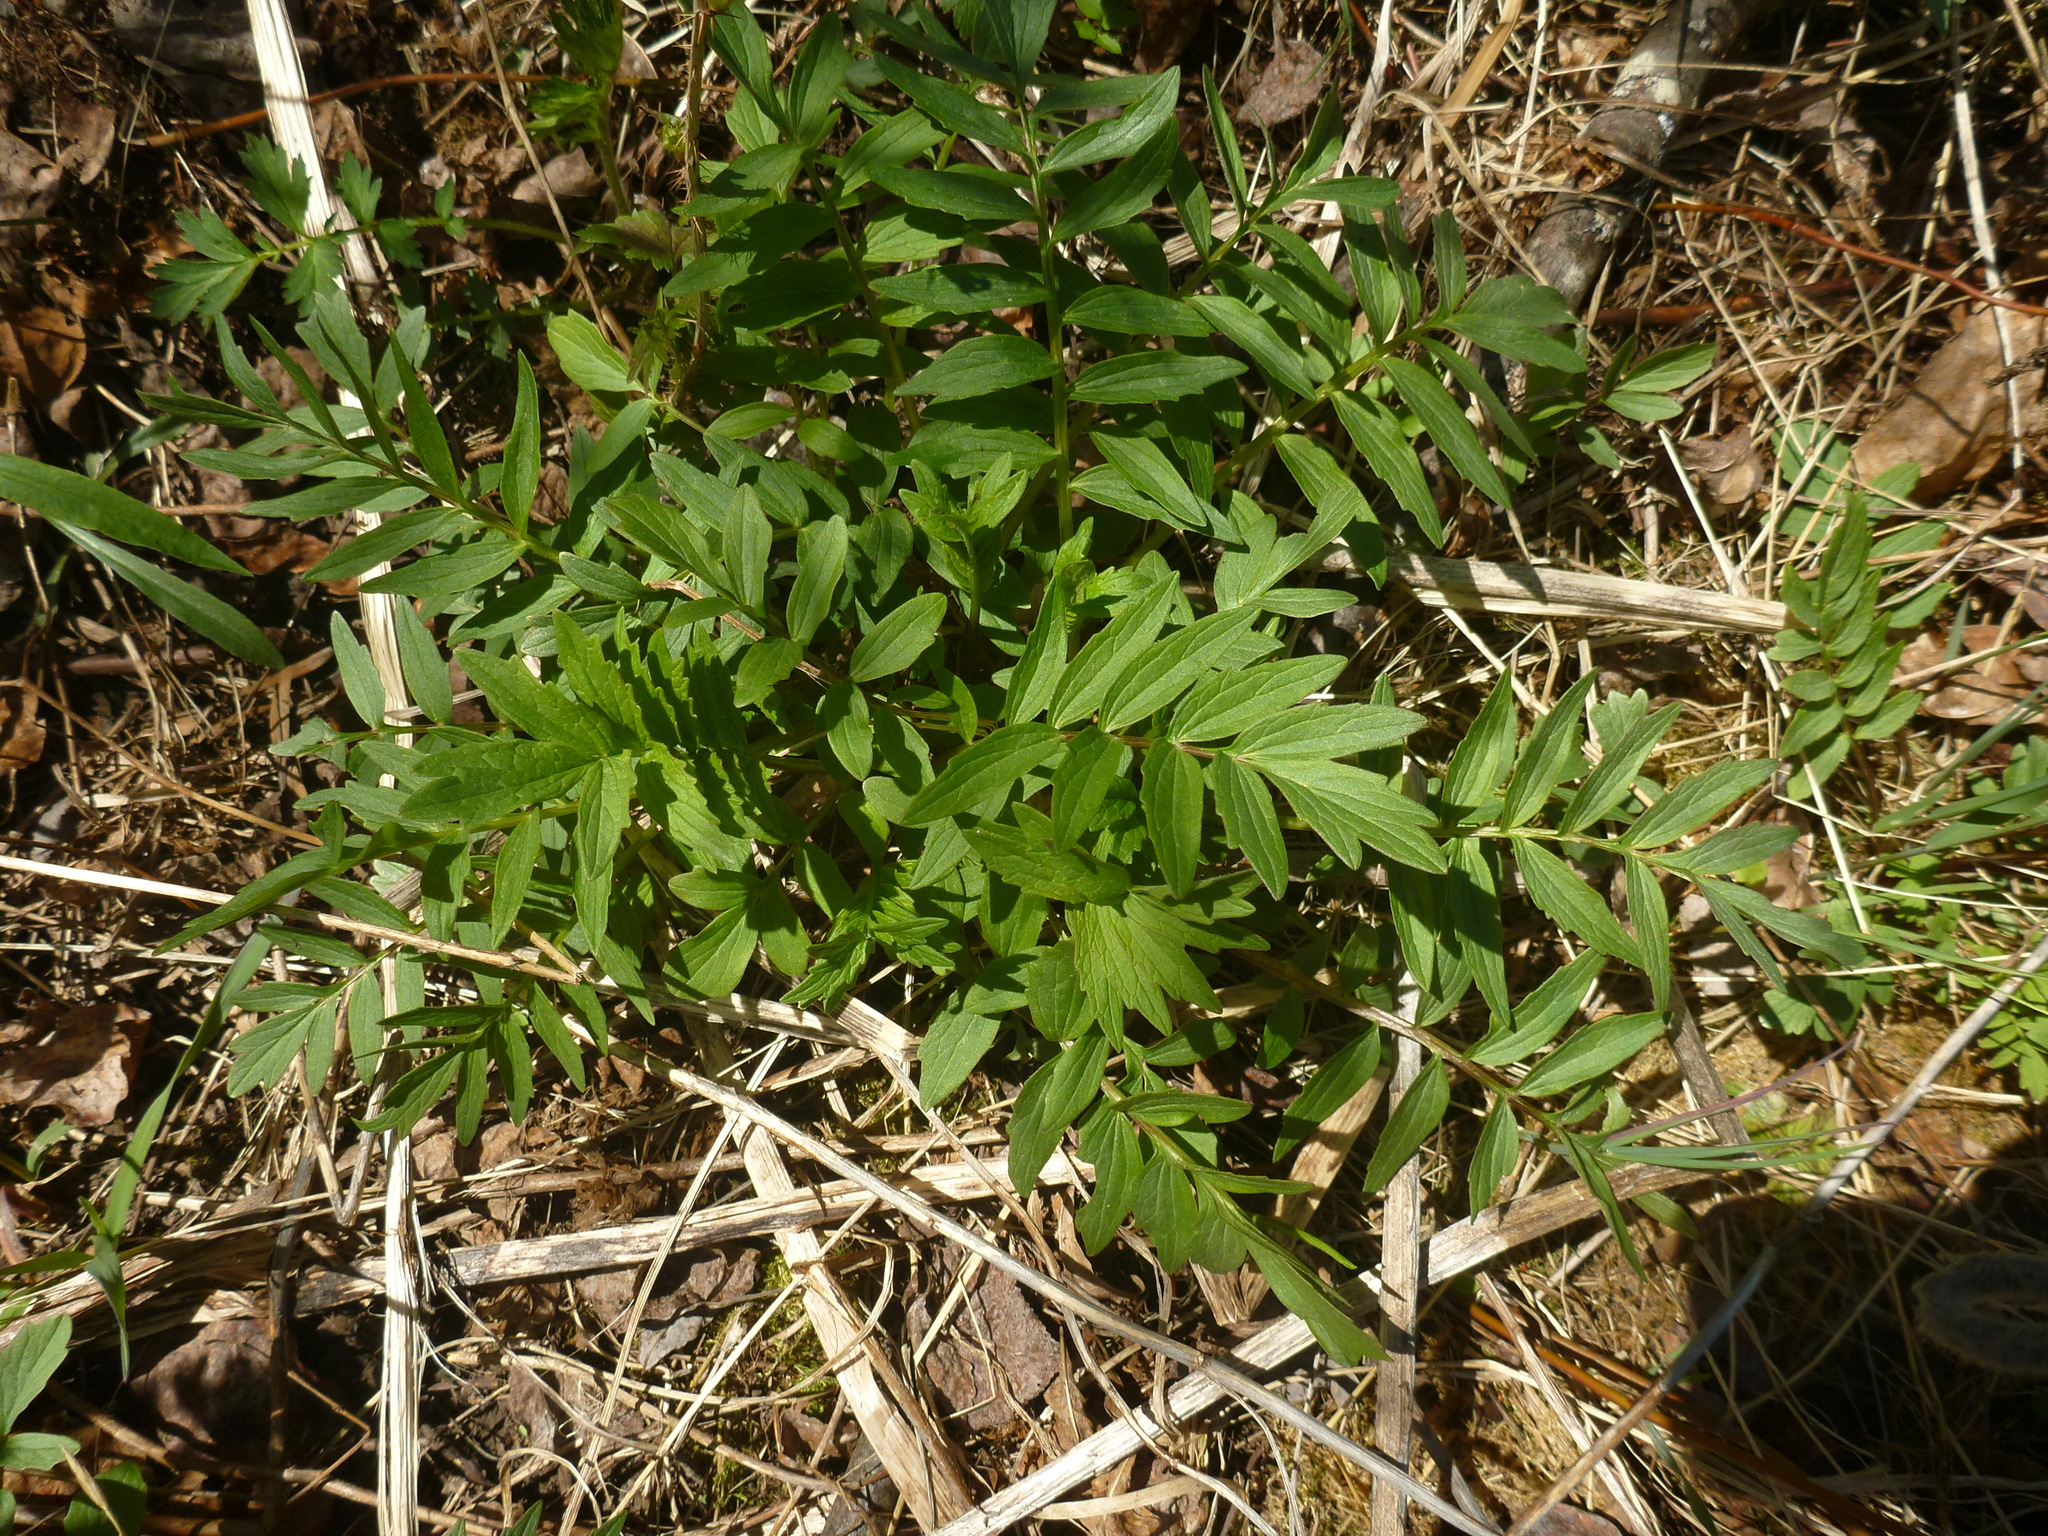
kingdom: Plantae
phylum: Tracheophyta
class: Magnoliopsida
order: Dipsacales
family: Caprifoliaceae
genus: Valeriana
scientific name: Valeriana officinalis
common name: Common valerian
